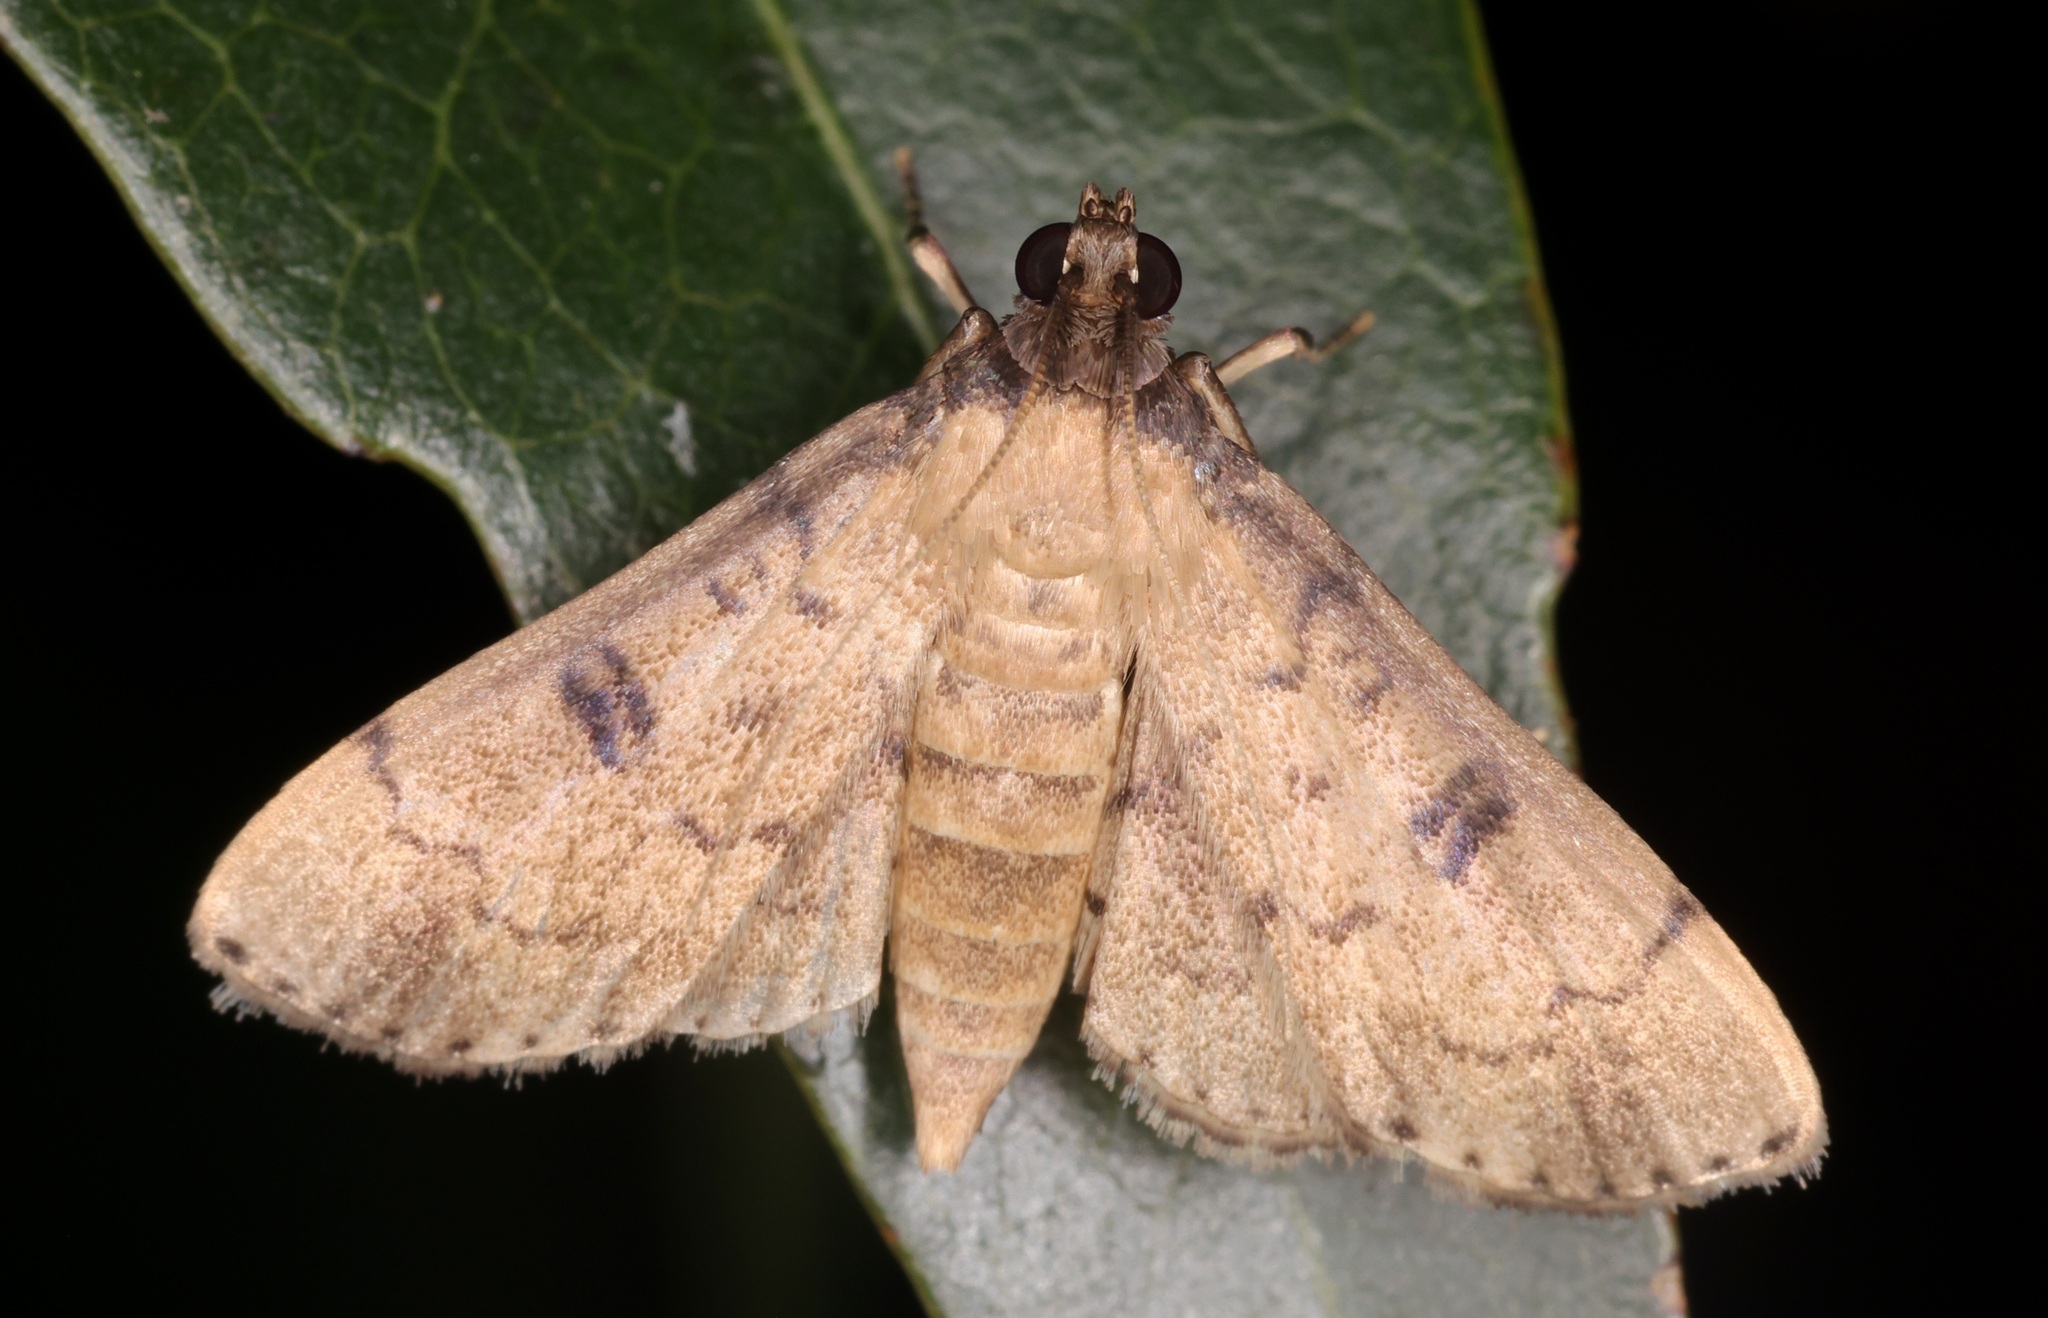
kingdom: Animalia
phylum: Arthropoda
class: Insecta
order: Lepidoptera
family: Crambidae
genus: Nacoleia
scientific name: Nacoleia charesalis
